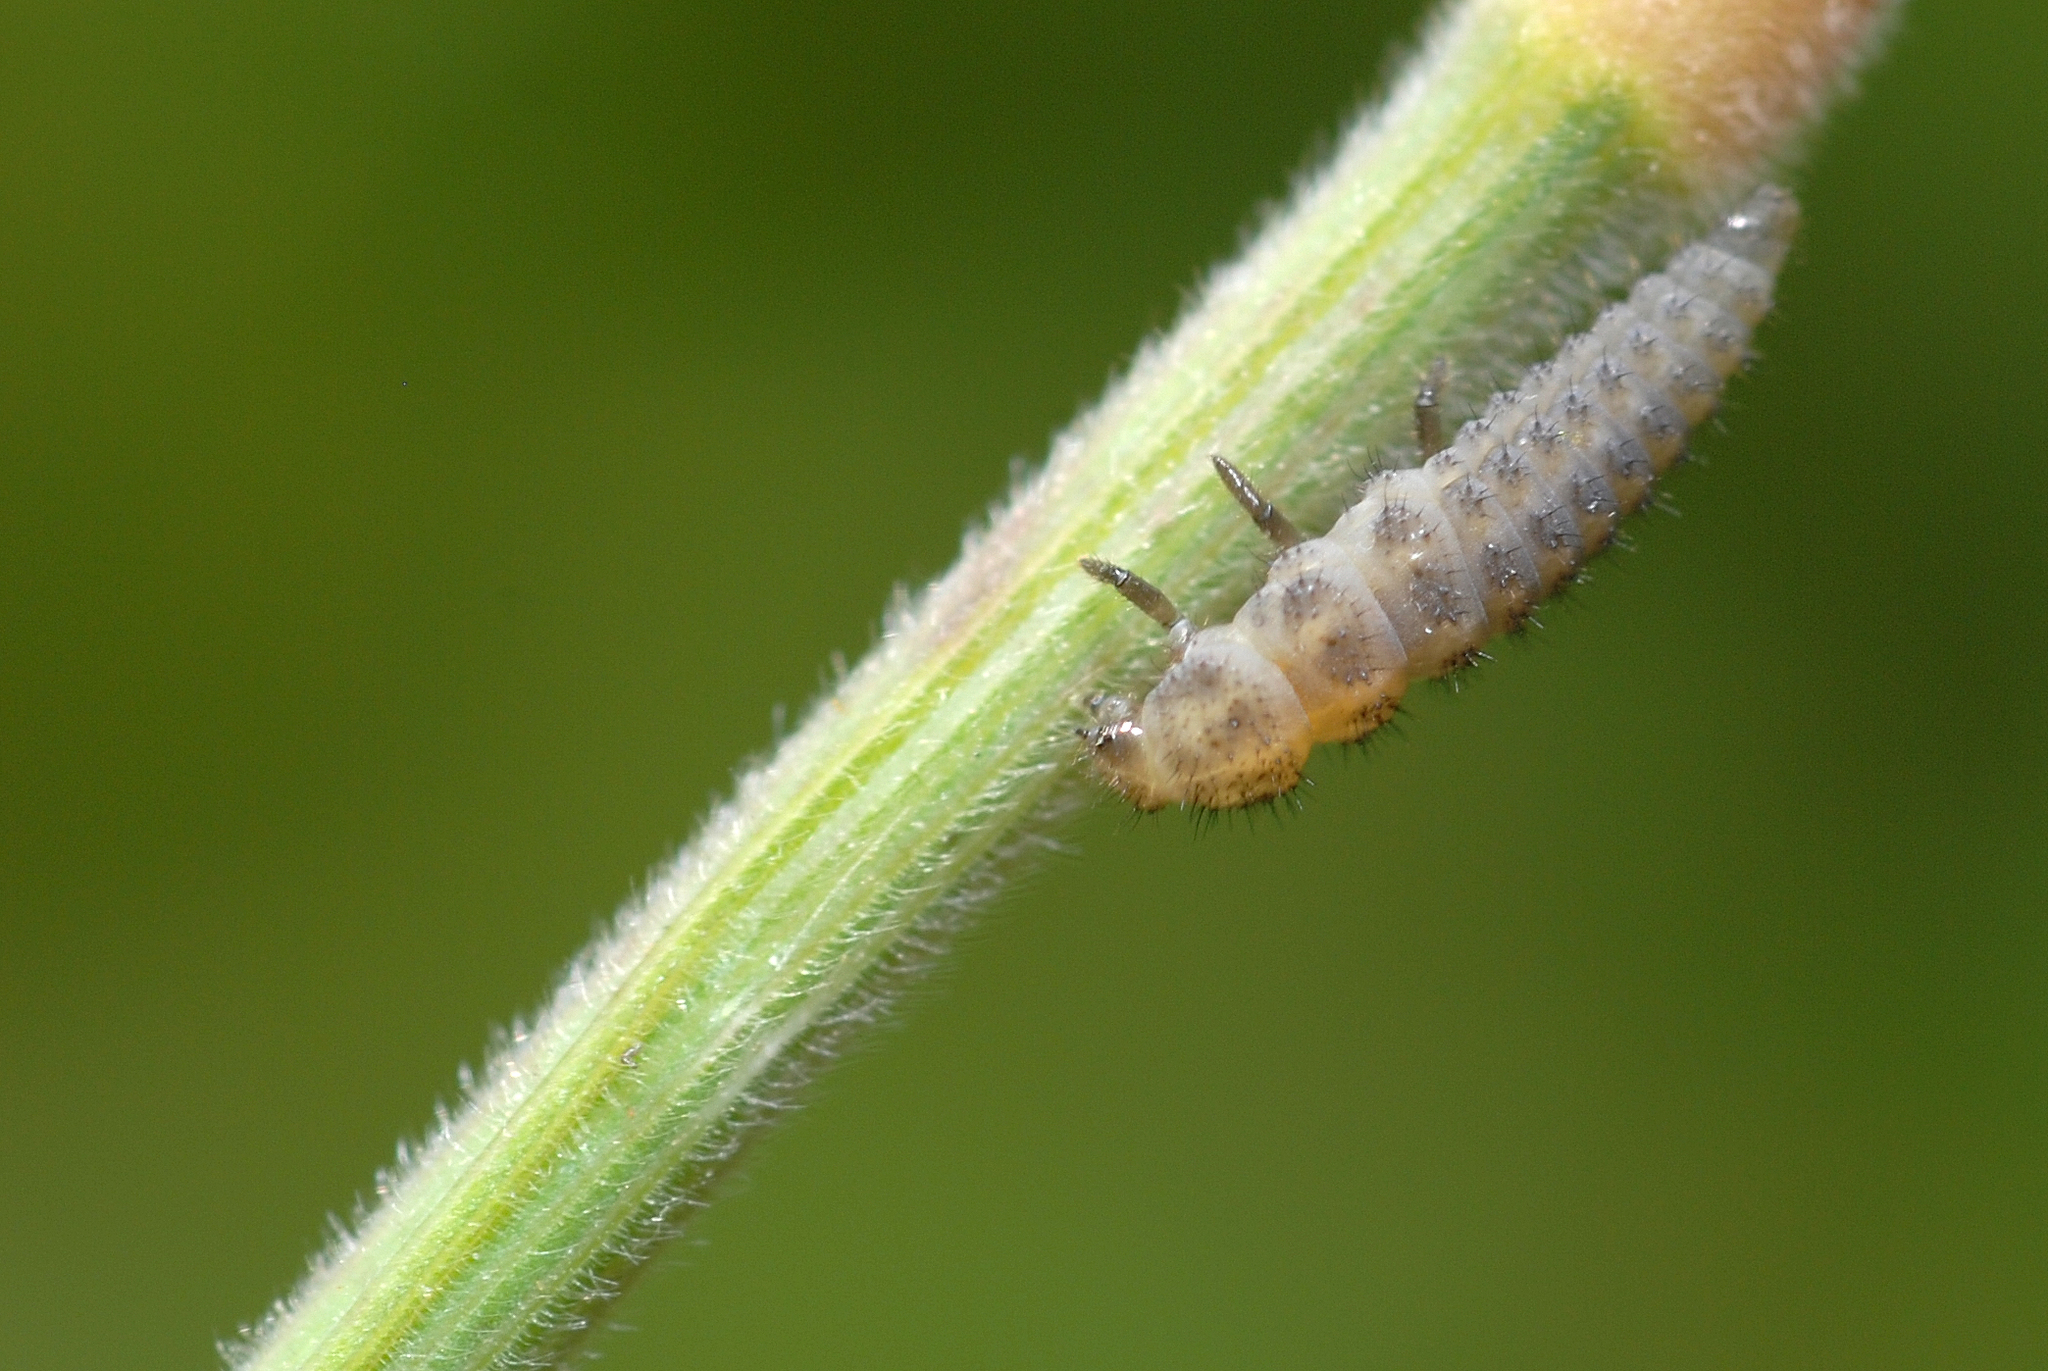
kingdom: Animalia
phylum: Arthropoda
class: Insecta
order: Coleoptera
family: Coccinellidae
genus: Tytthaspis
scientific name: Tytthaspis sedecimpunctata
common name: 16-spot ladybird
